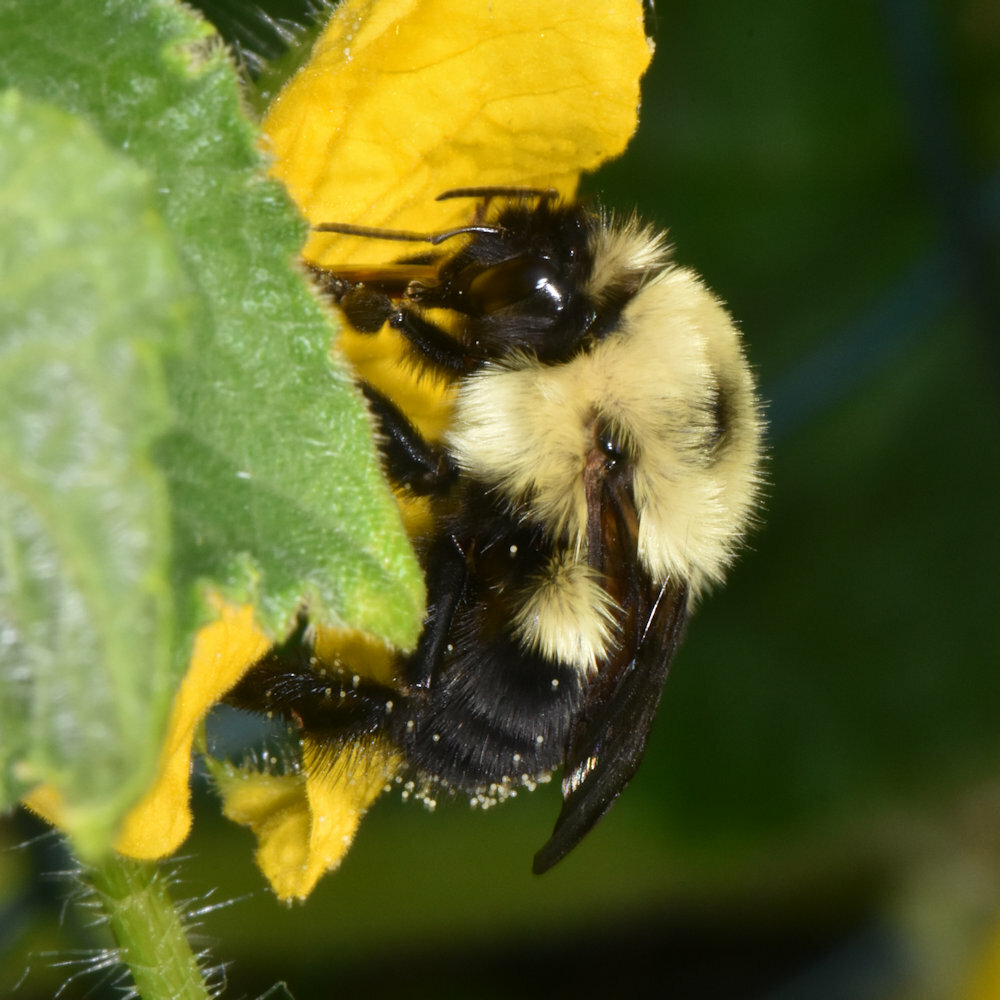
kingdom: Animalia
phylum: Arthropoda
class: Insecta
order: Hymenoptera
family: Apidae
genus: Bombus
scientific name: Bombus bimaculatus
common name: Two-spotted bumble bee
